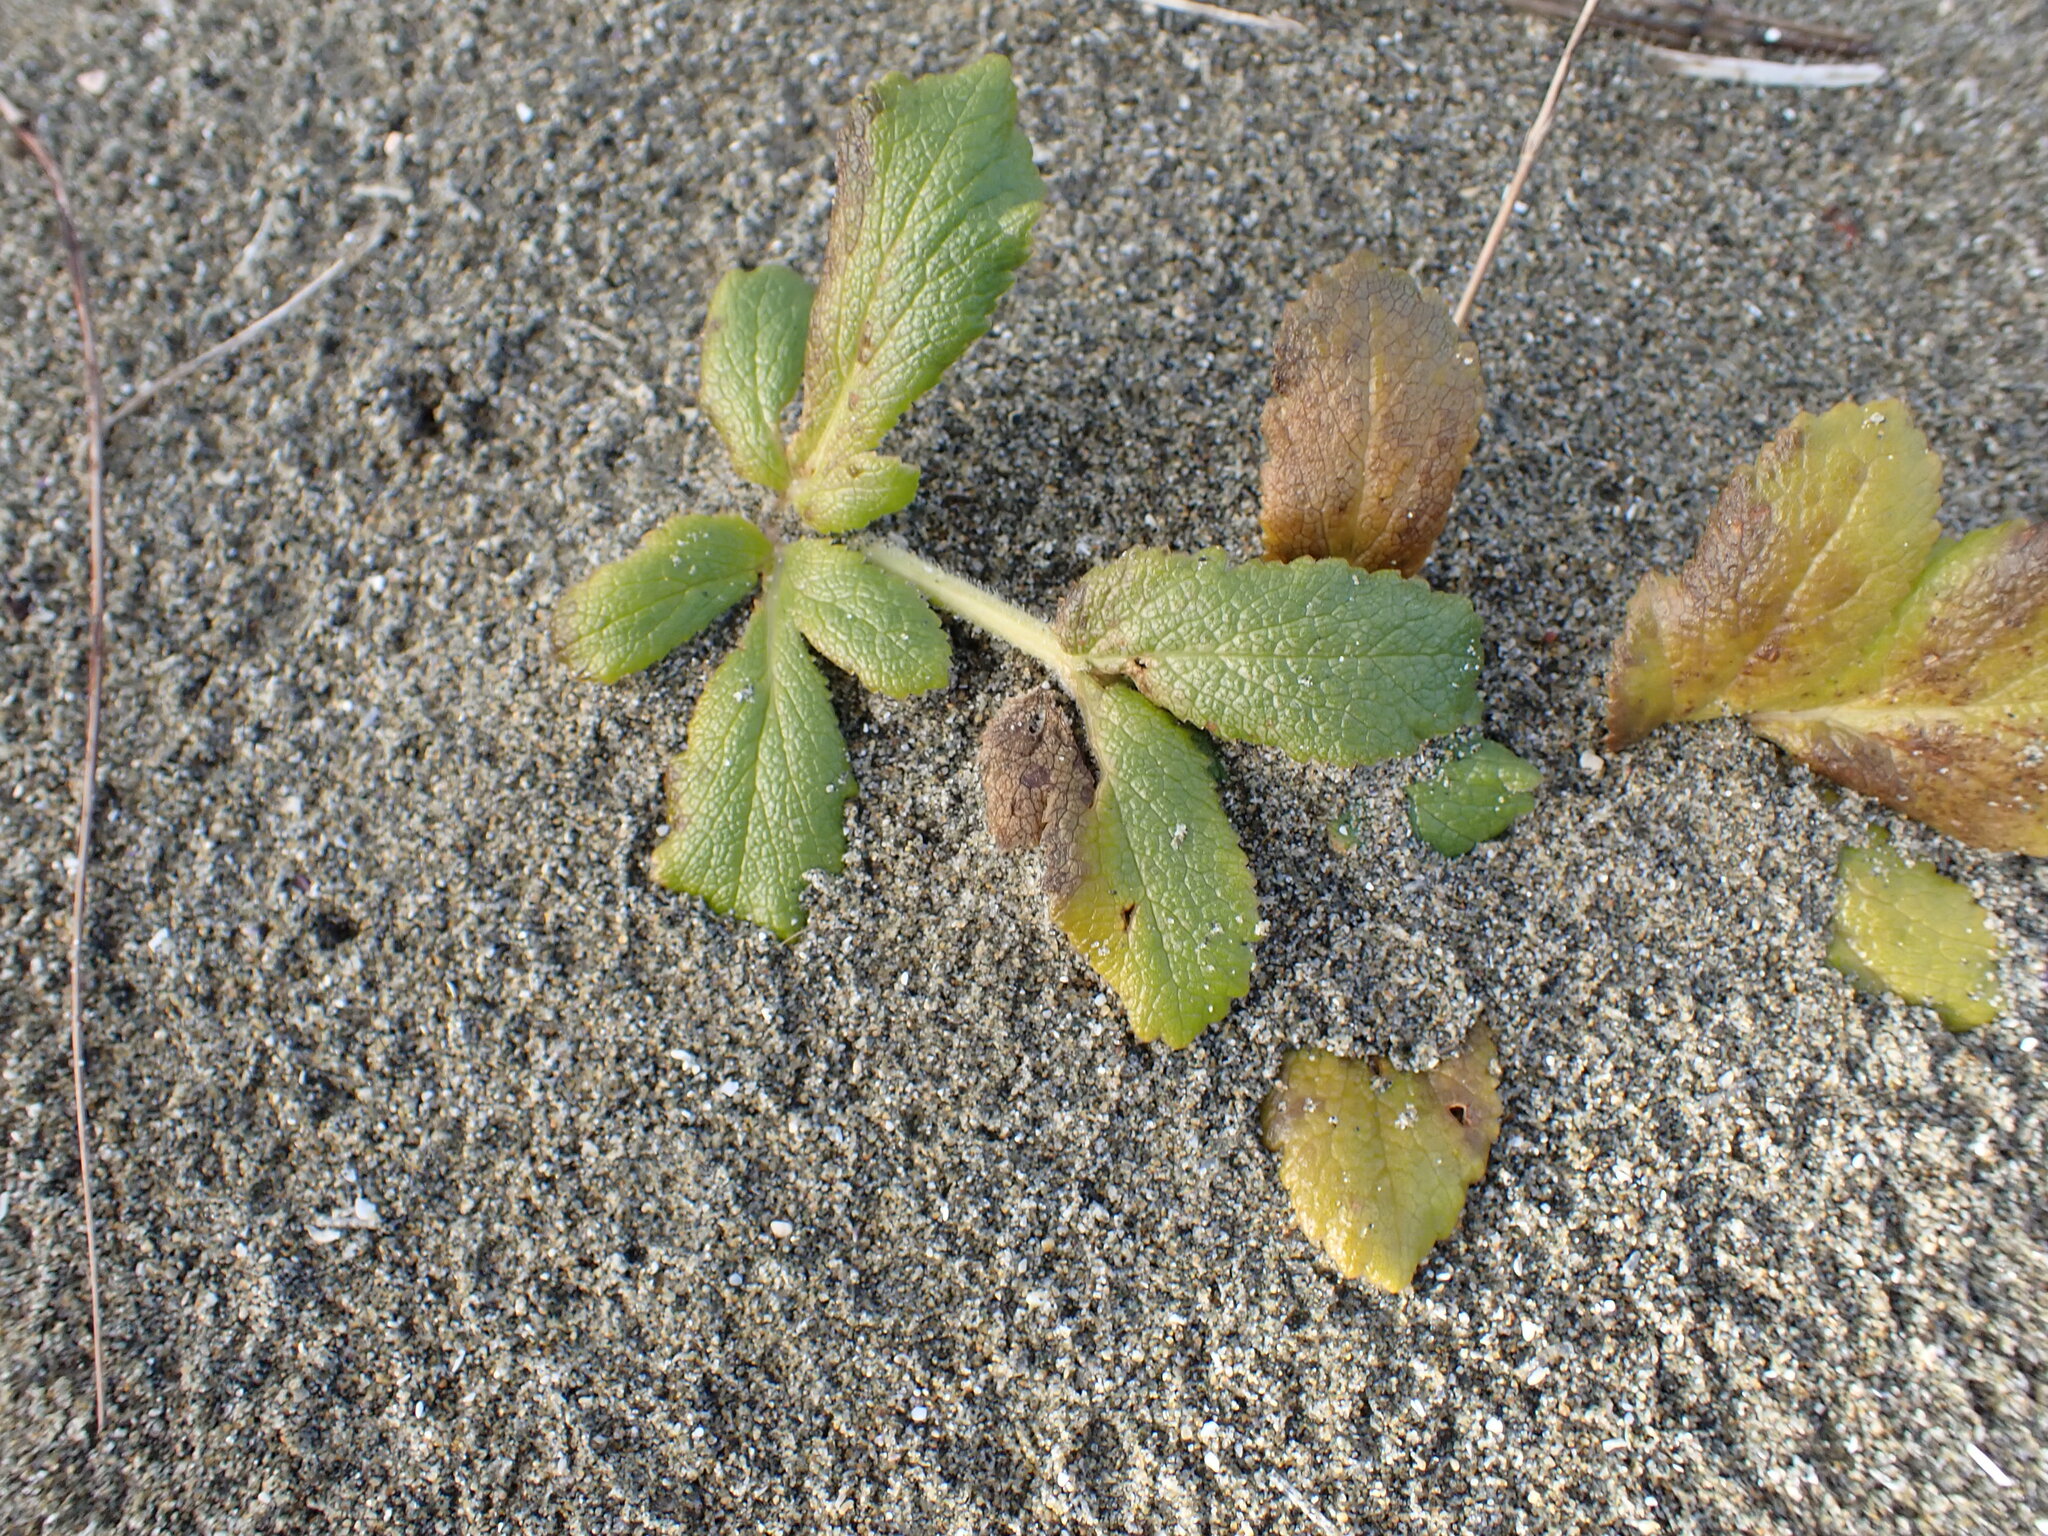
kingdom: Plantae
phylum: Tracheophyta
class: Magnoliopsida
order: Apiales
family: Apiaceae
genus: Glehnia
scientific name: Glehnia littoralis
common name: Beach silvertop
